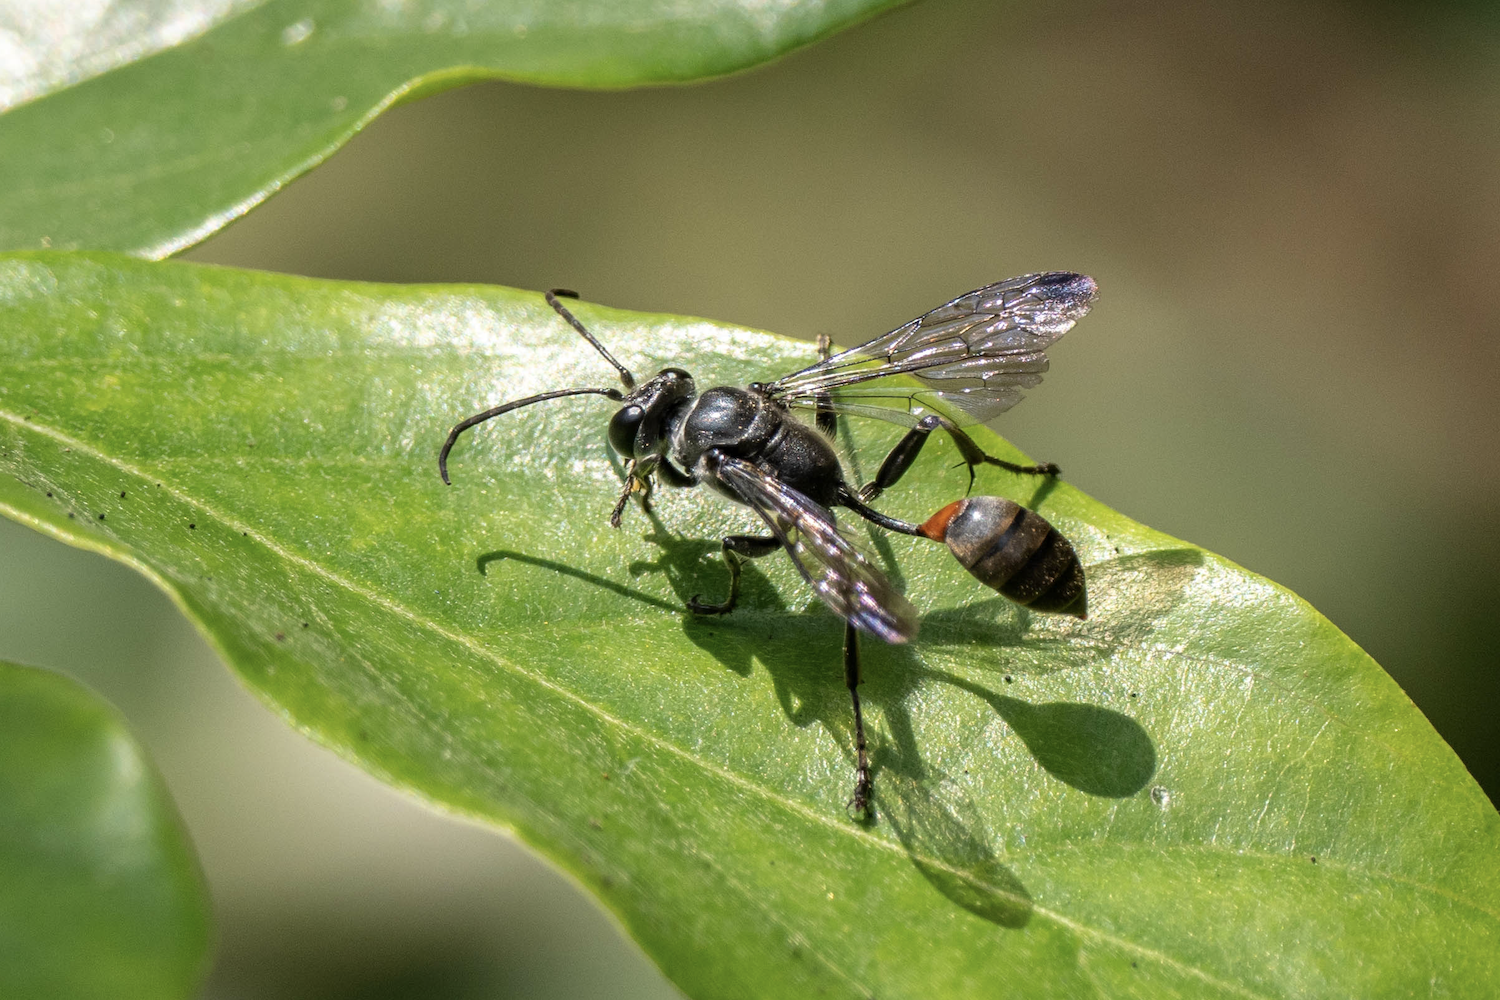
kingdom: Animalia
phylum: Arthropoda
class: Insecta
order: Hymenoptera
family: Sphecidae
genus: Isodontia
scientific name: Isodontia diodon
